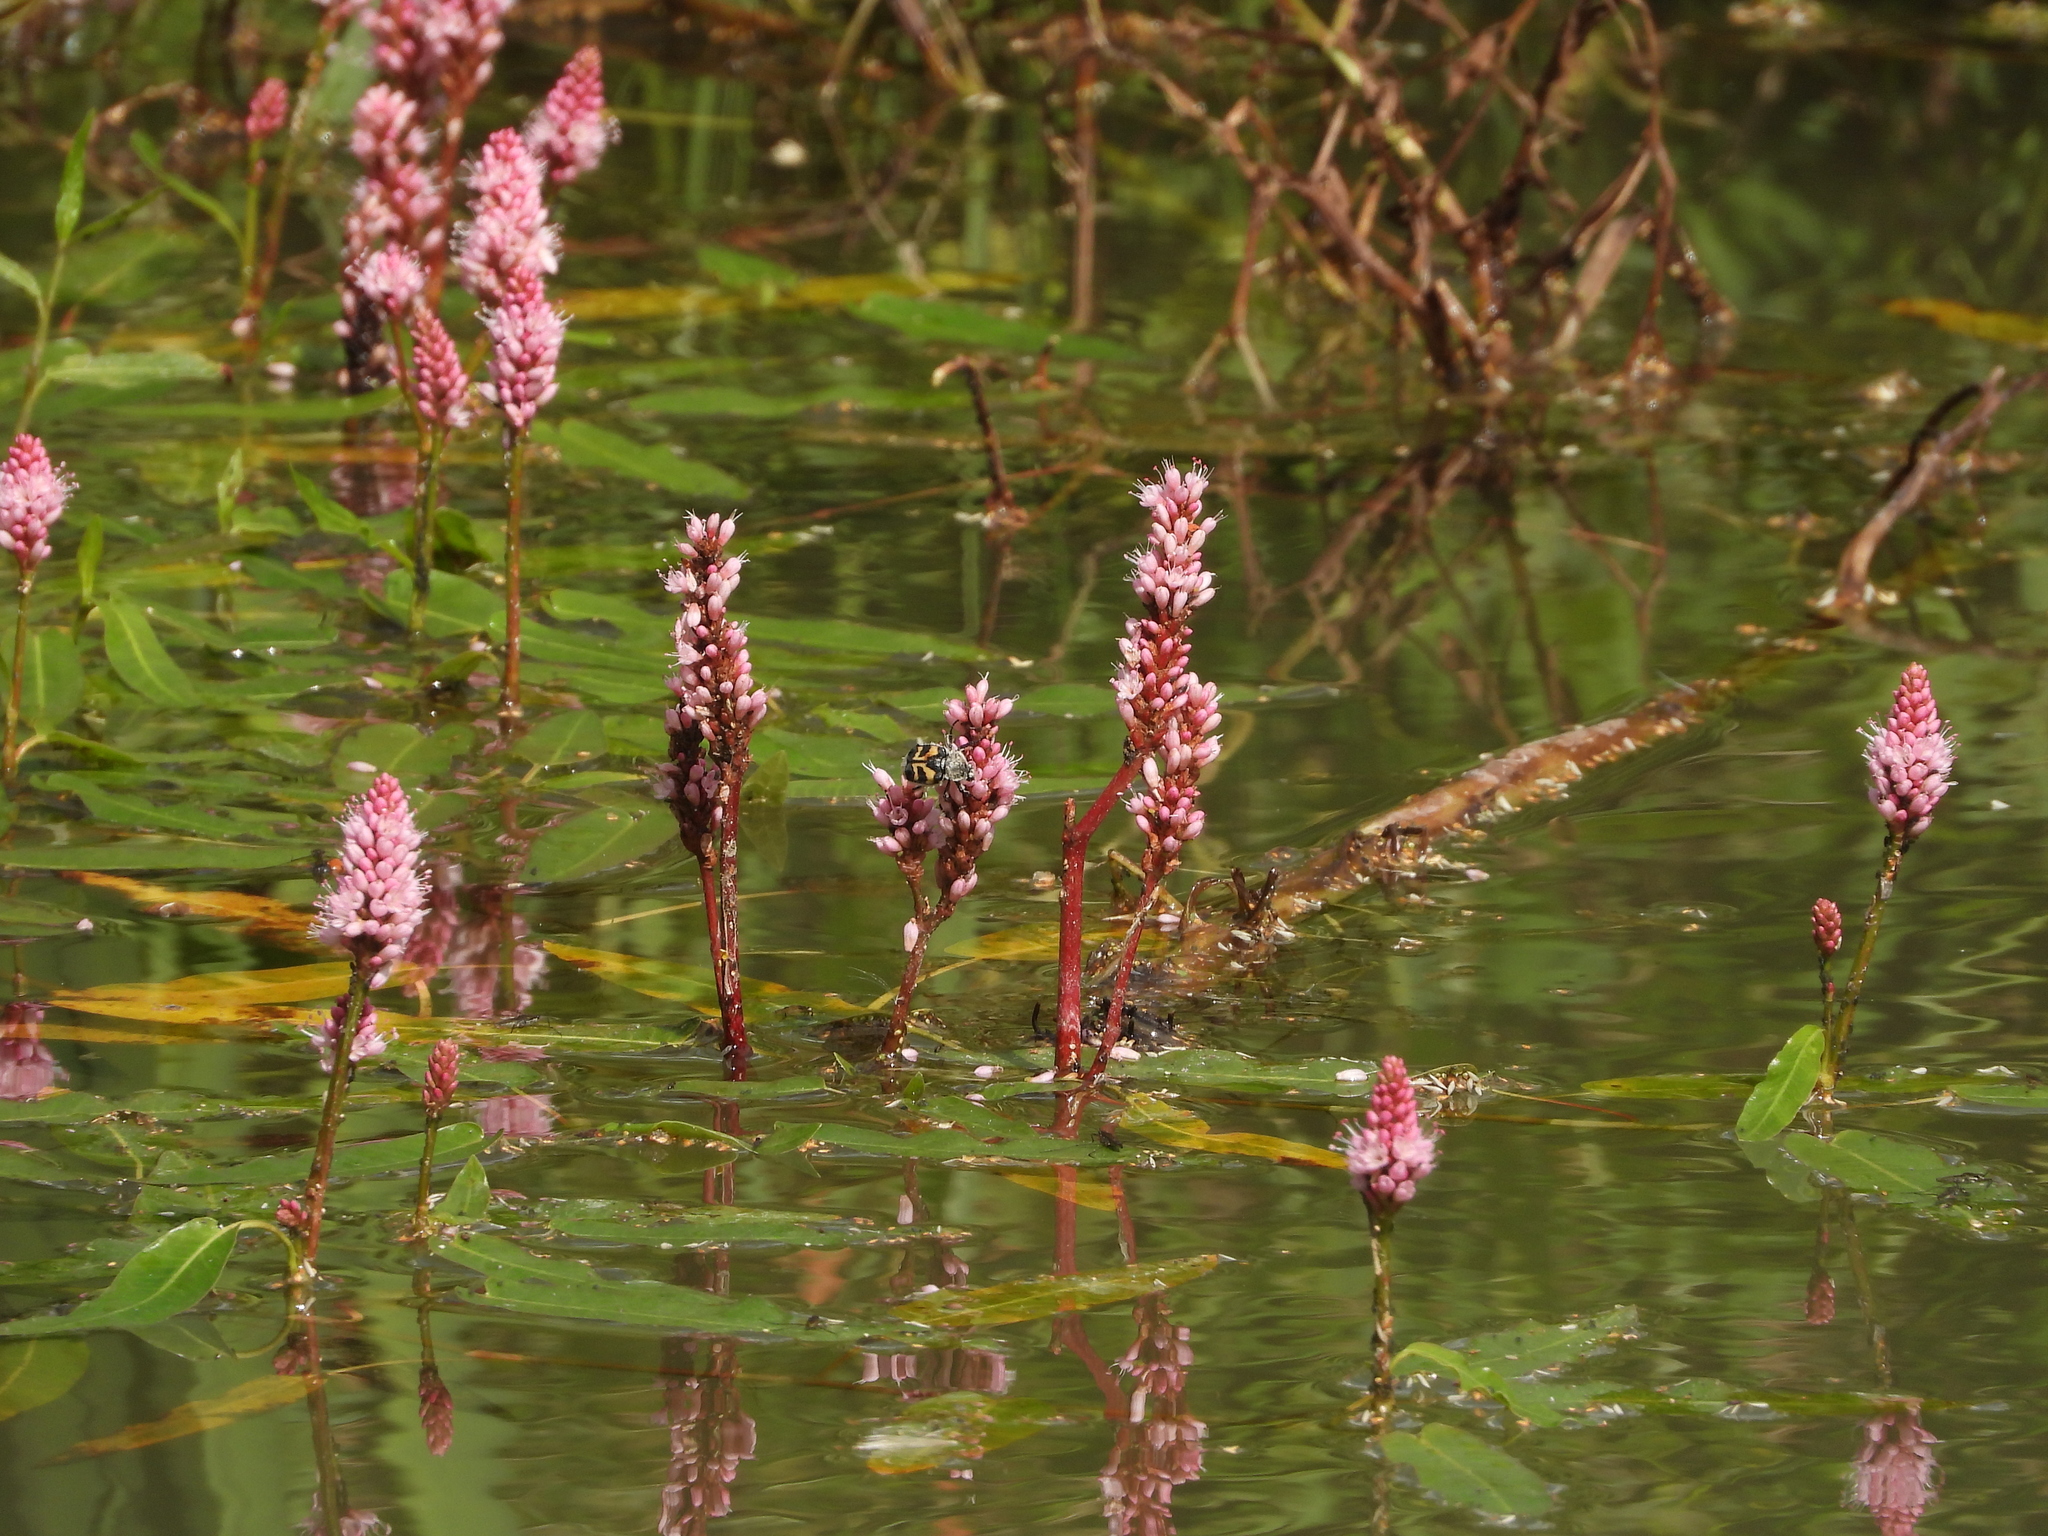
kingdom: Plantae
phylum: Tracheophyta
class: Magnoliopsida
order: Caryophyllales
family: Polygonaceae
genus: Persicaria
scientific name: Persicaria amphibia
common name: Amphibious bistort
